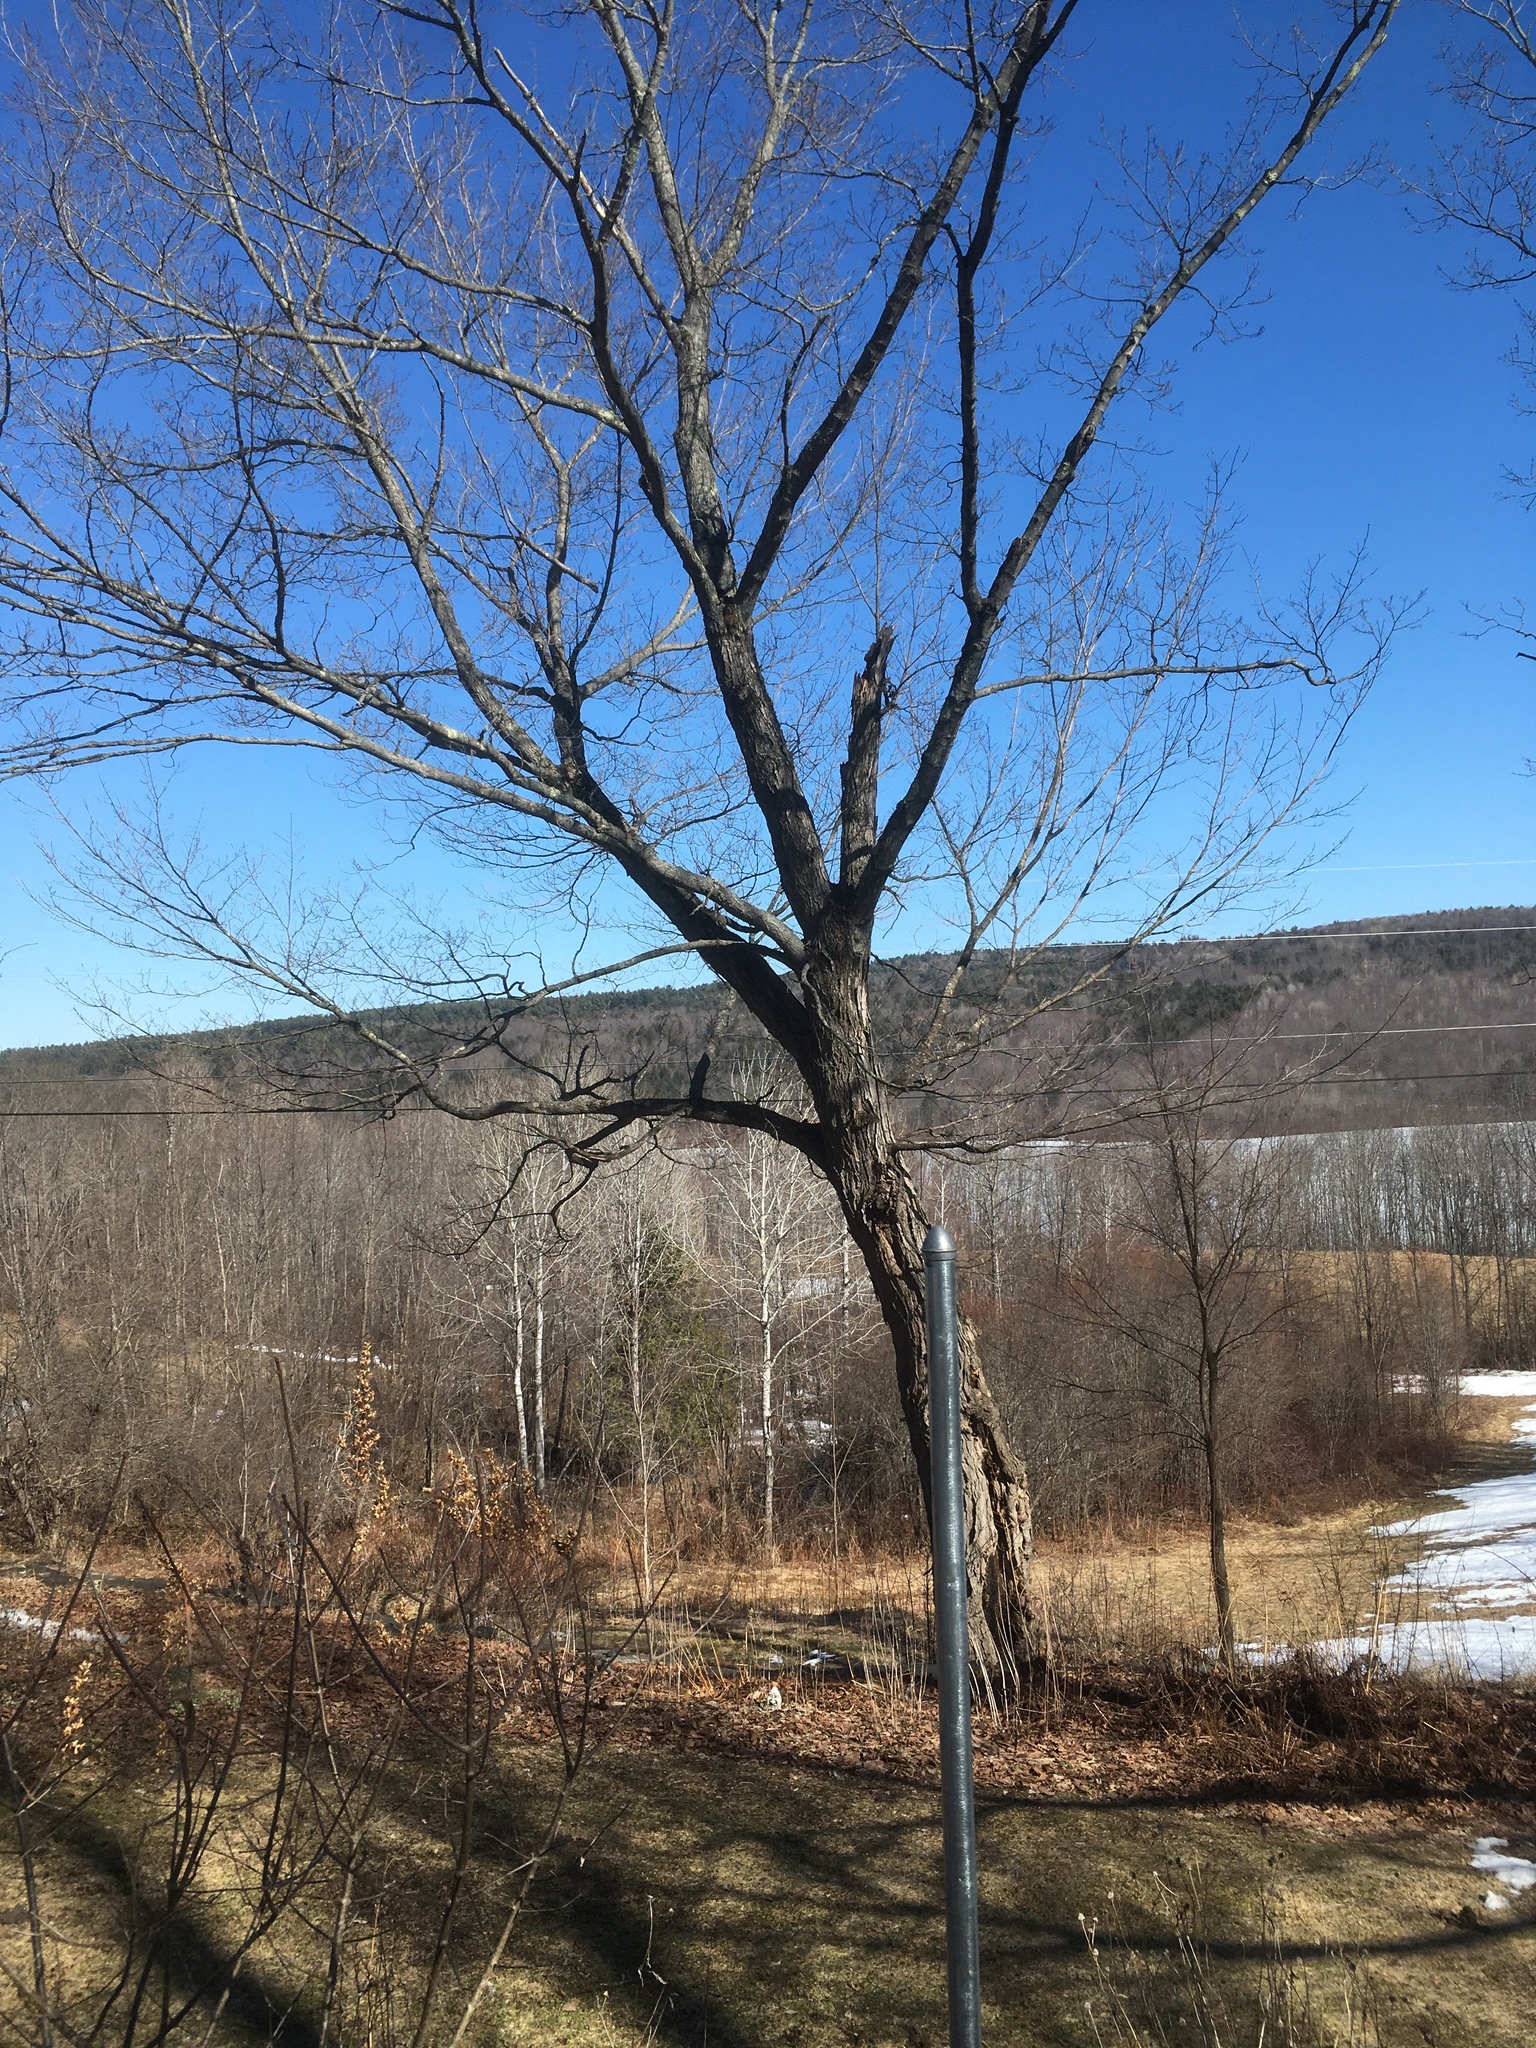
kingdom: Plantae
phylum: Tracheophyta
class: Magnoliopsida
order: Sapindales
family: Sapindaceae
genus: Acer
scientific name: Acer saccharum
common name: Sugar maple
